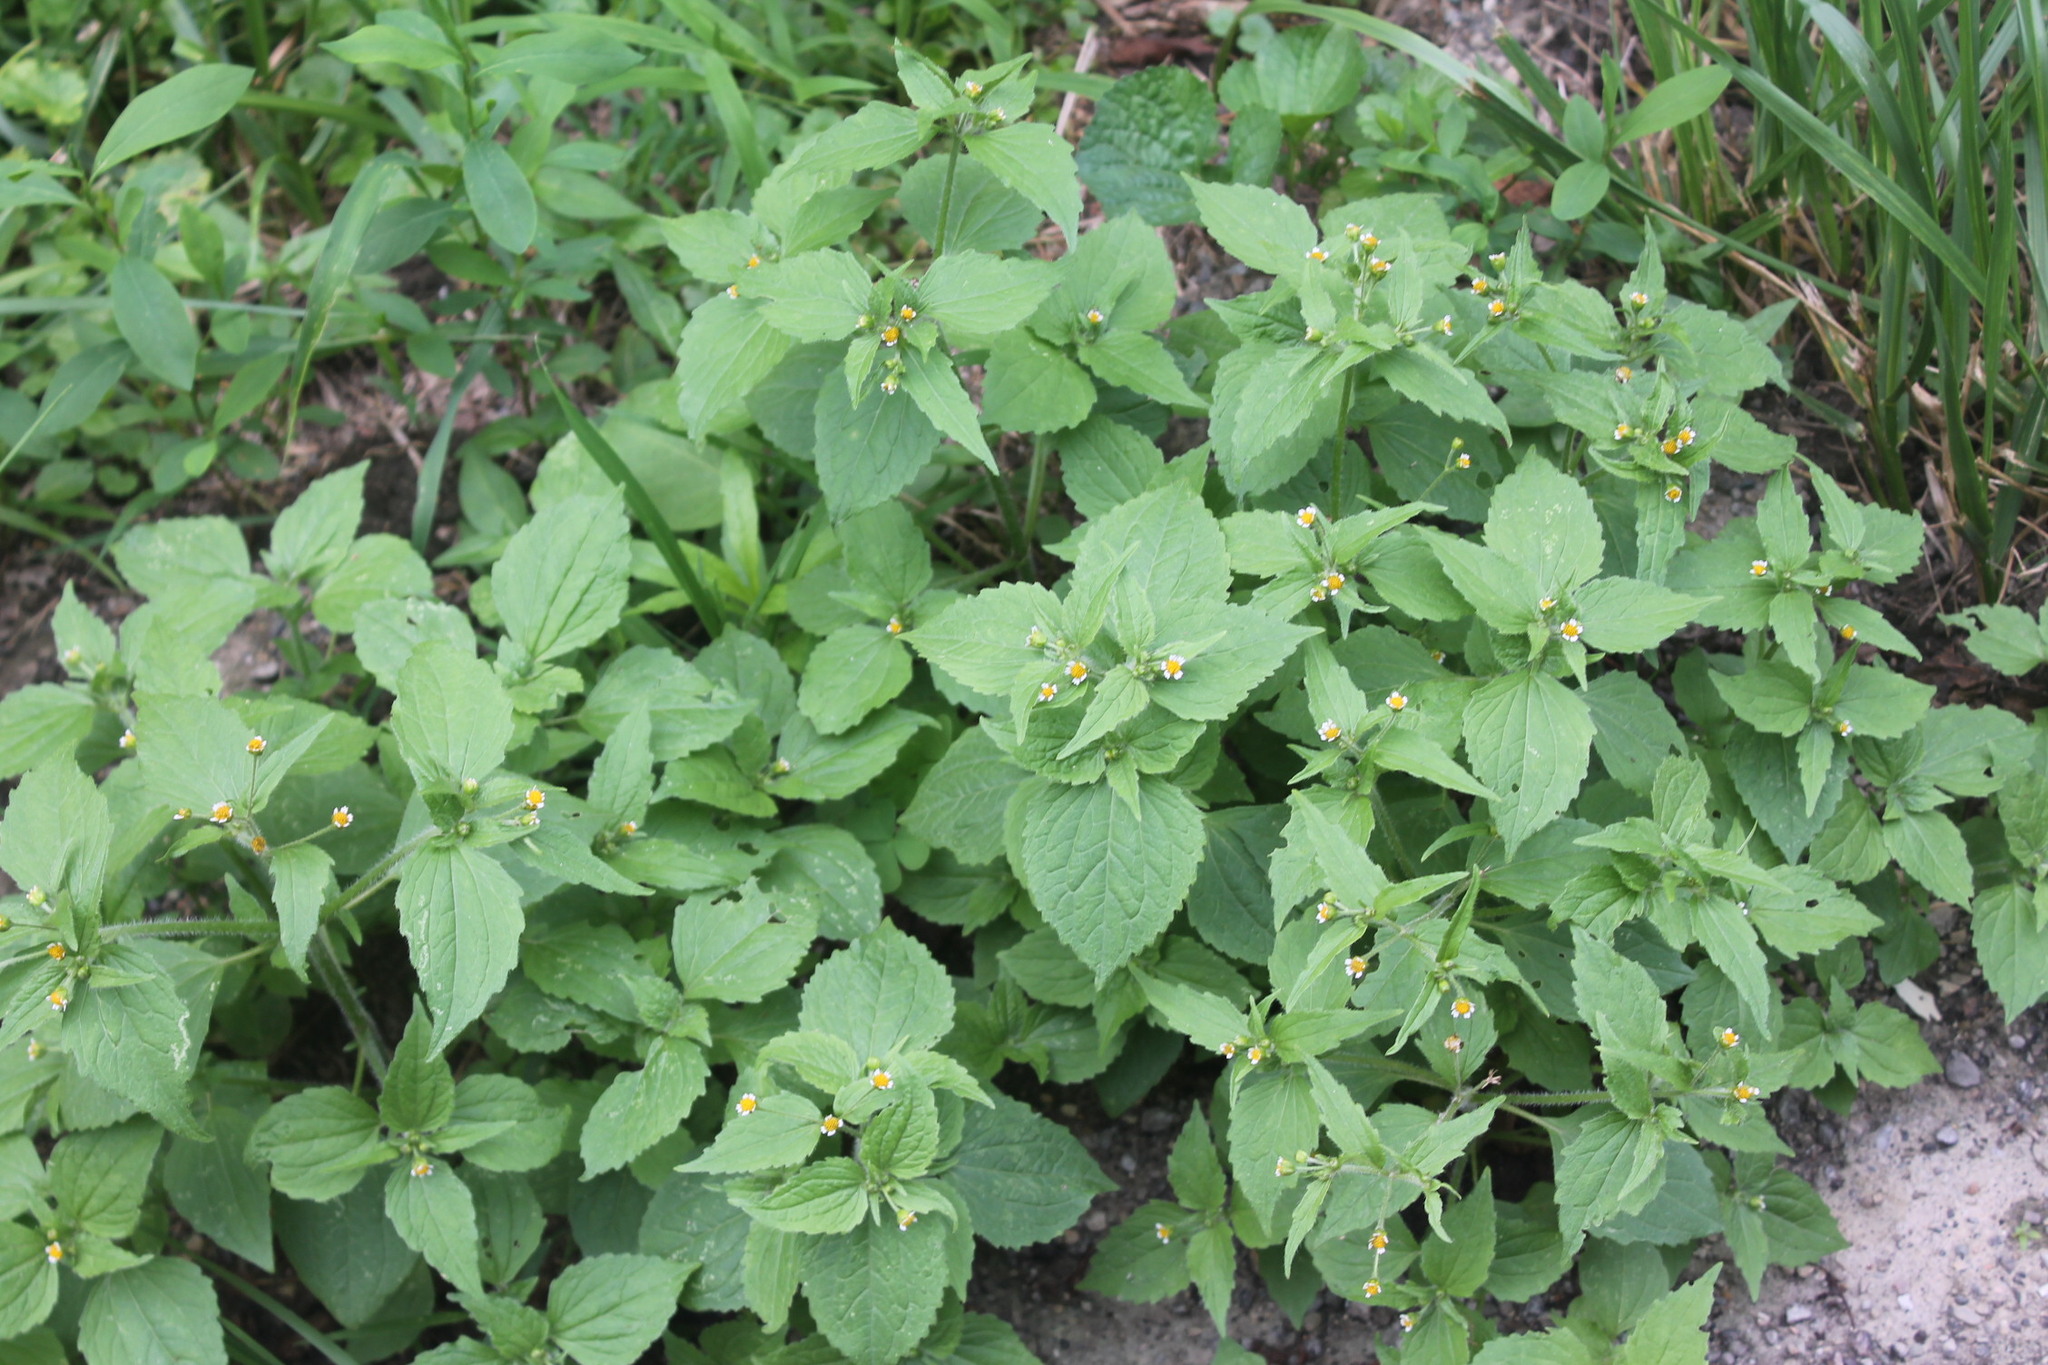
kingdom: Plantae
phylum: Tracheophyta
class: Magnoliopsida
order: Asterales
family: Asteraceae
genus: Galinsoga
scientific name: Galinsoga quadriradiata
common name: Shaggy soldier
